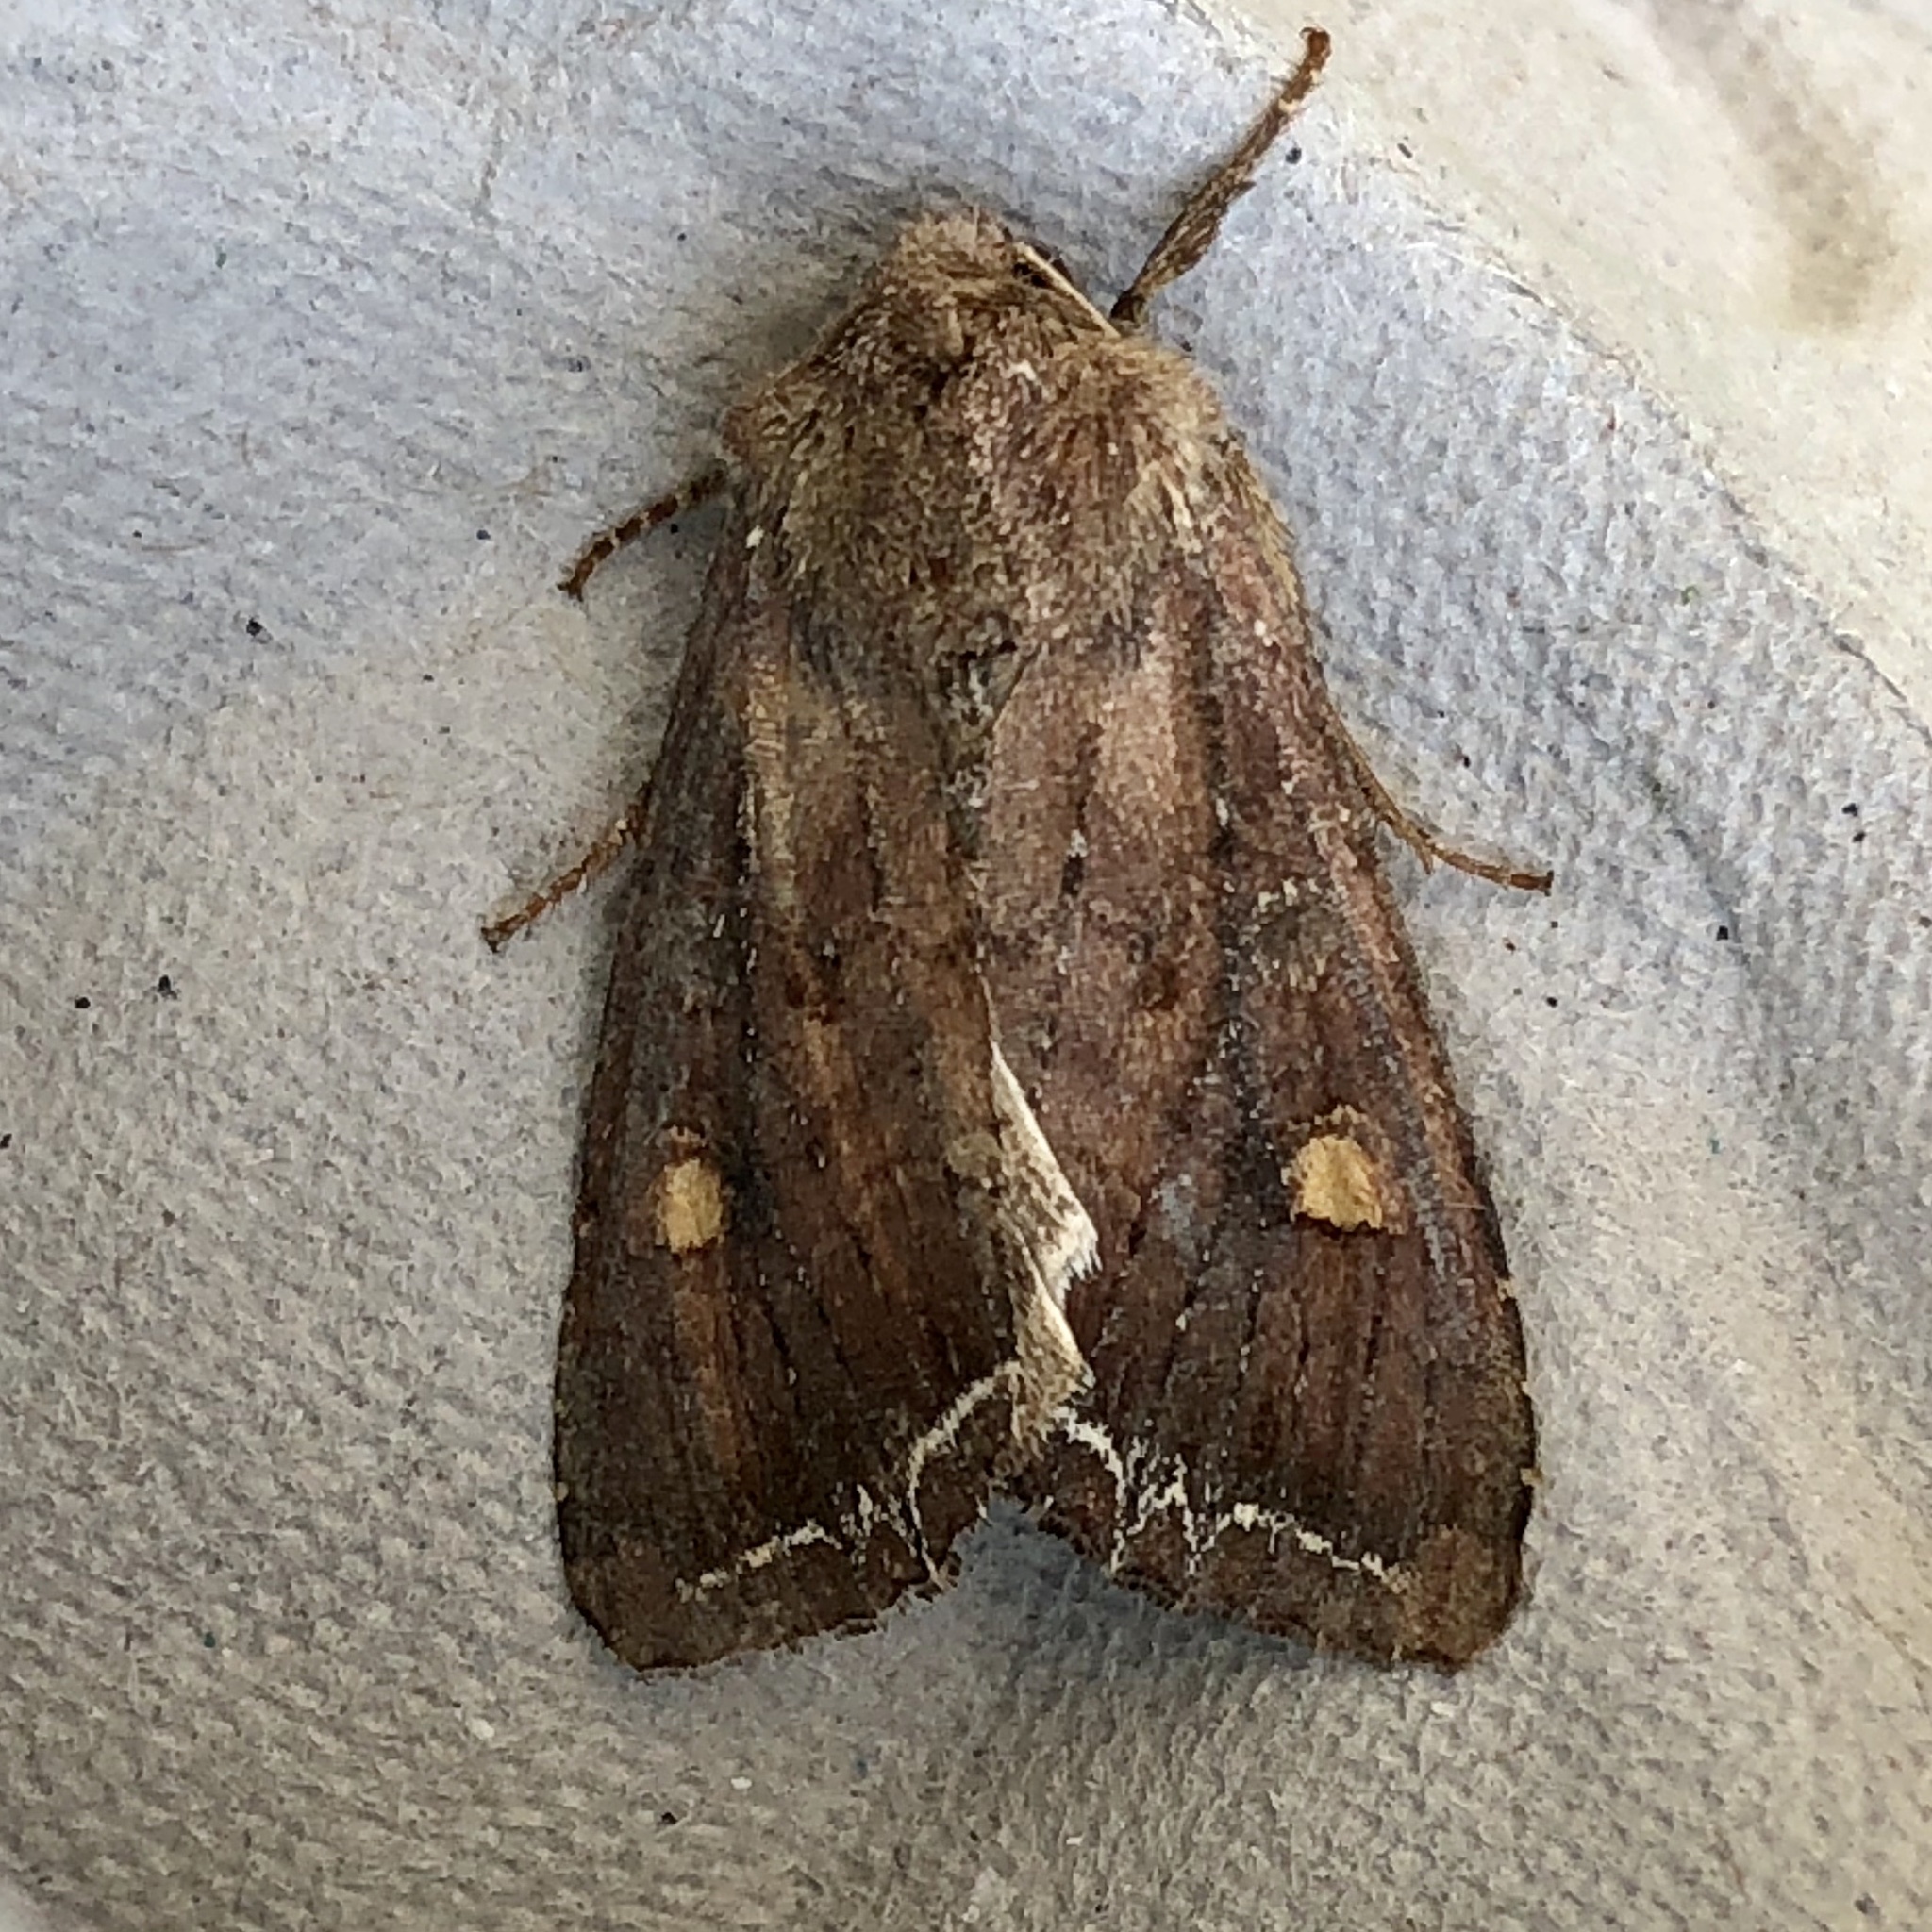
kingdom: Animalia
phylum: Arthropoda
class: Insecta
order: Lepidoptera
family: Noctuidae
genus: Lacanobia
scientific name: Lacanobia oleracea
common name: Bright-line brown-eye
